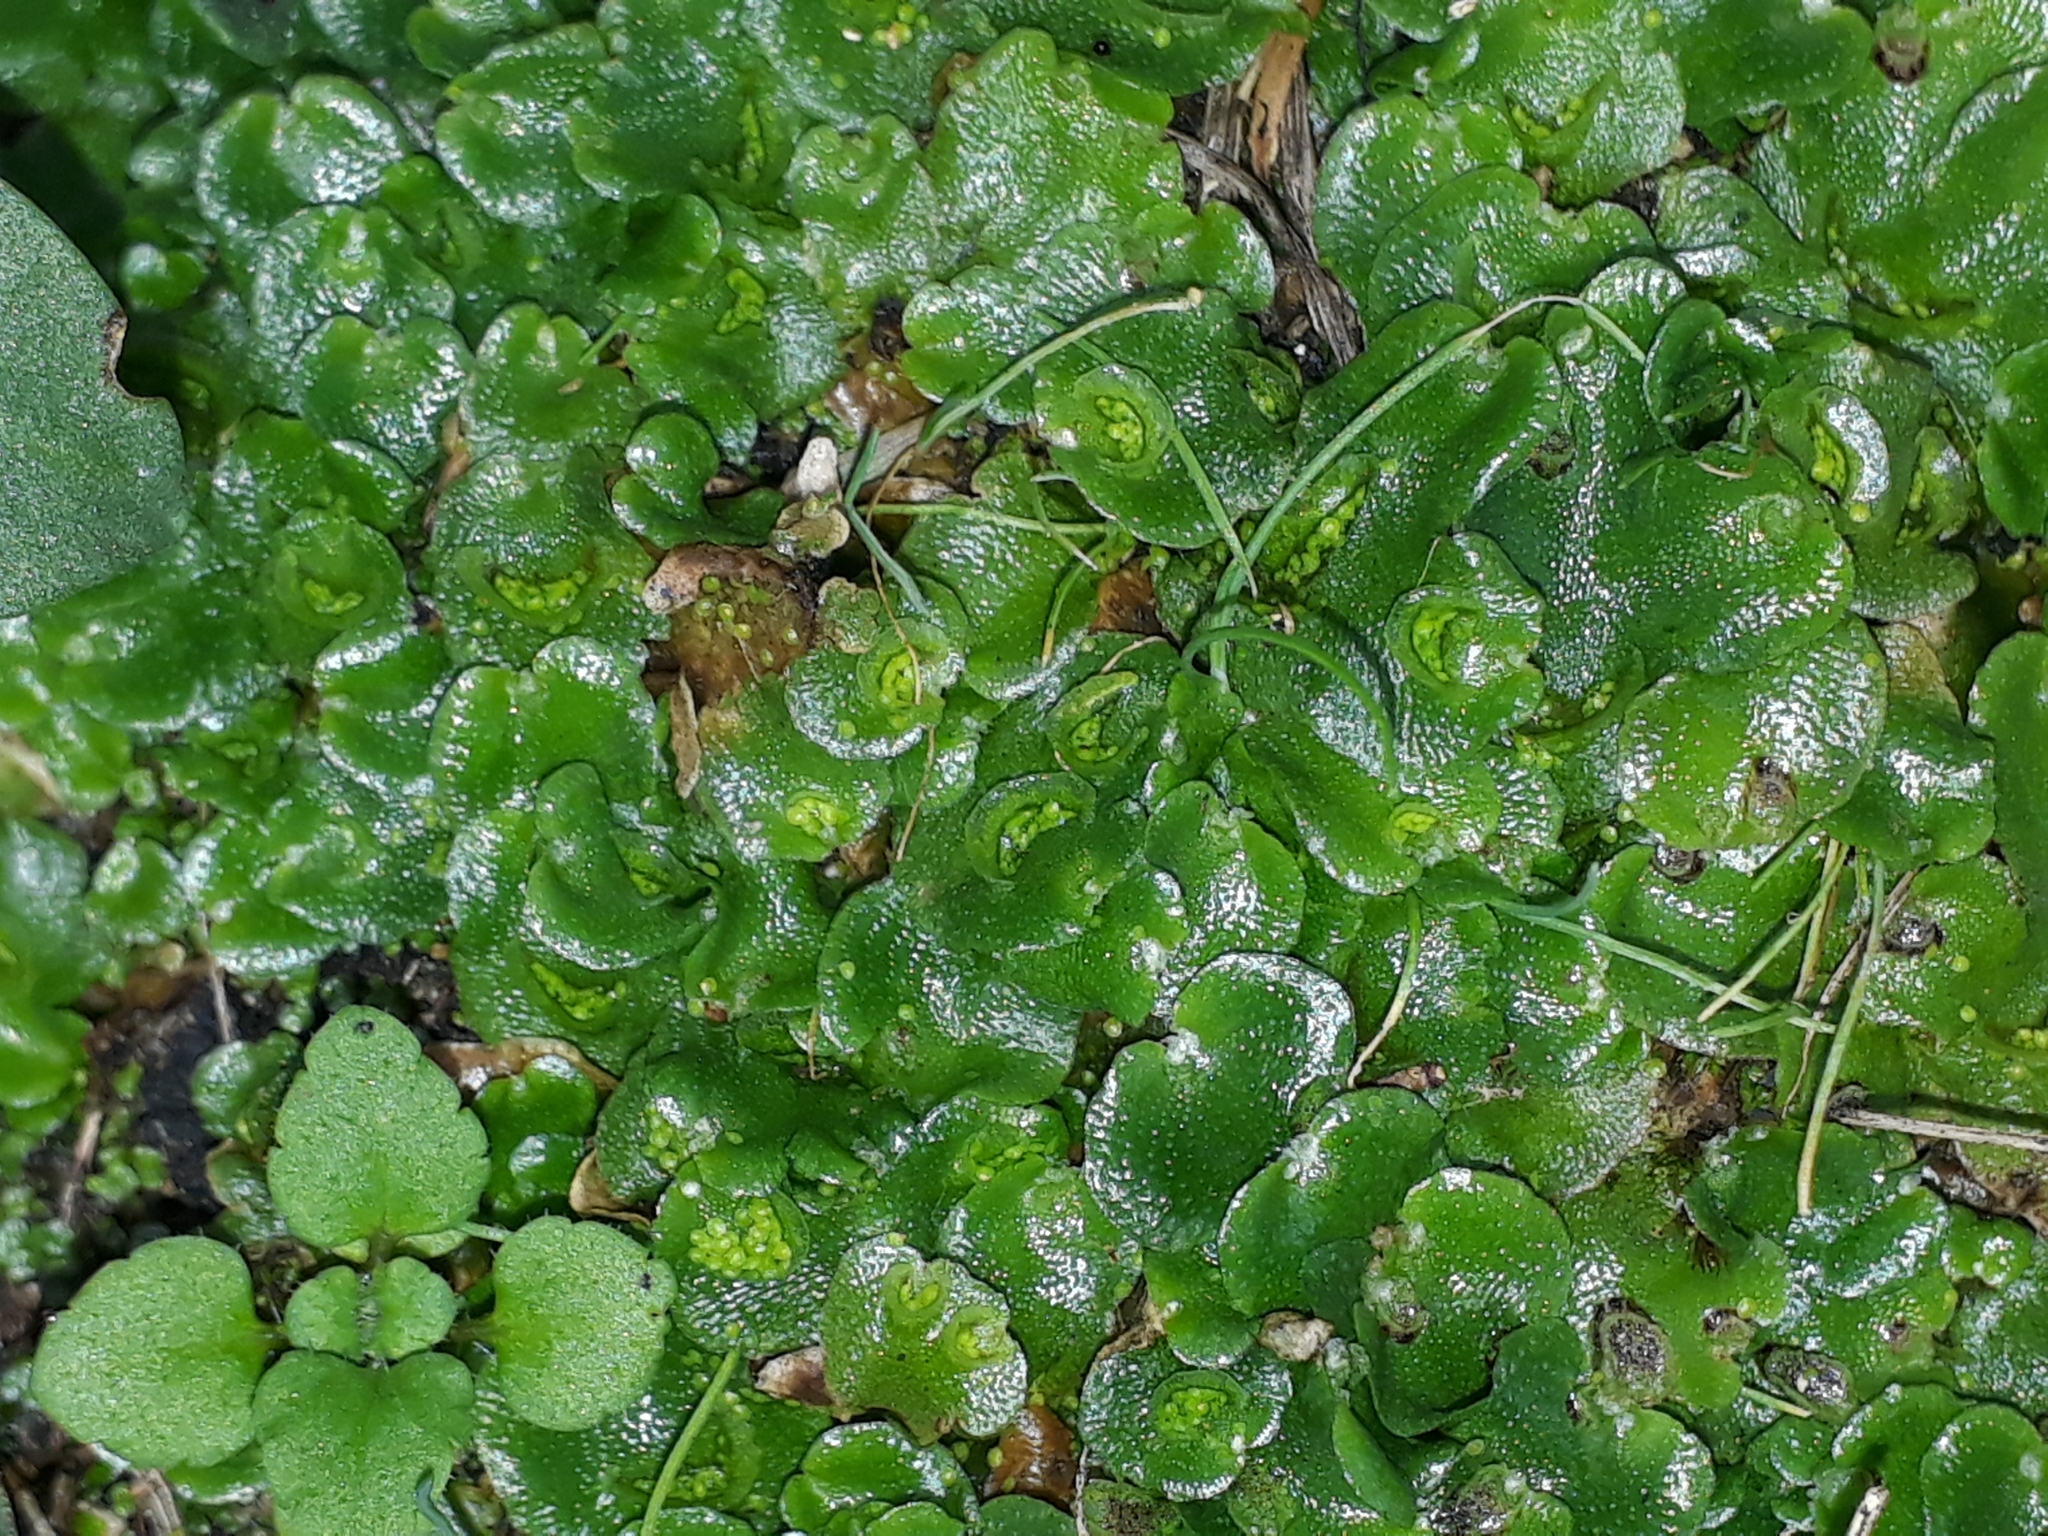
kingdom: Plantae
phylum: Marchantiophyta
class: Marchantiopsida
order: Lunulariales
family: Lunulariaceae
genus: Lunularia
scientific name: Lunularia cruciata
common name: Crescent-cup liverwort
